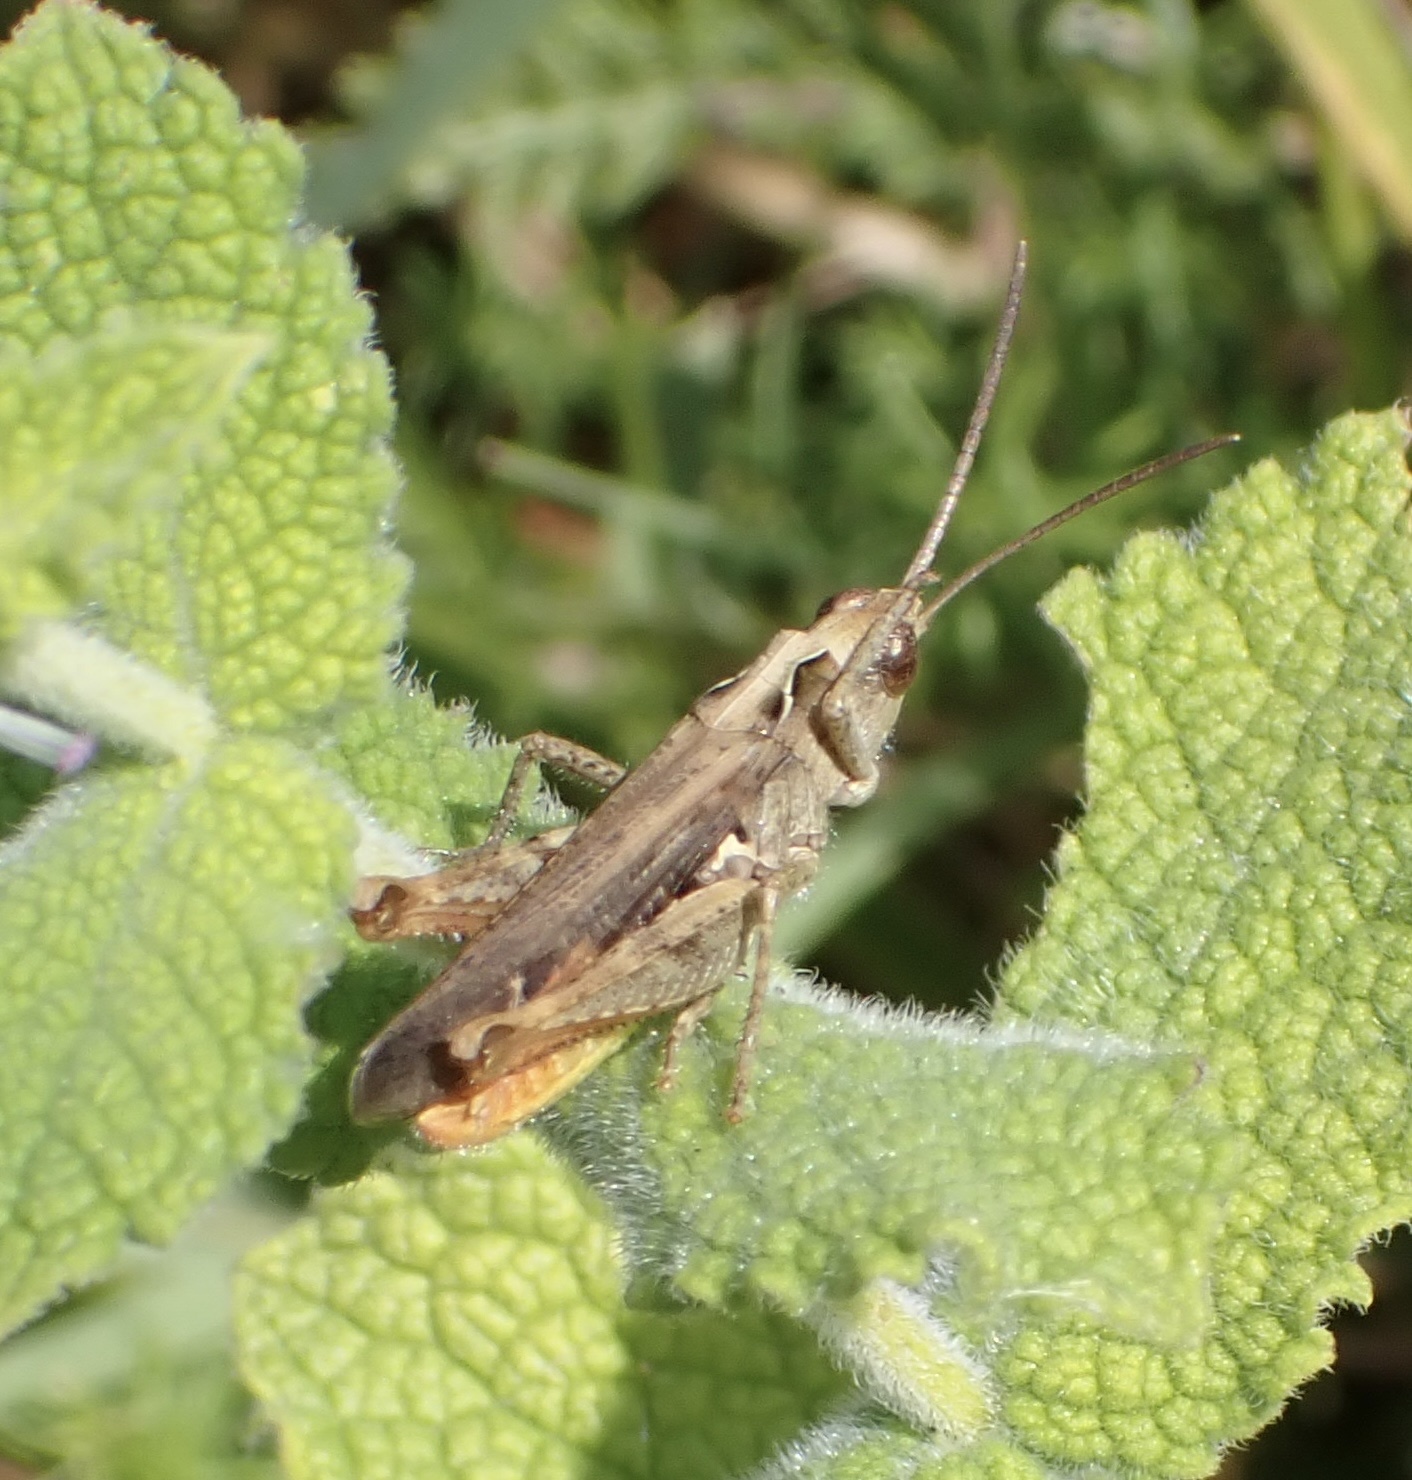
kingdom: Animalia
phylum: Arthropoda
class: Insecta
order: Orthoptera
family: Acrididae
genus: Chorthippus
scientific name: Chorthippus brunneus
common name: Field grasshopper
